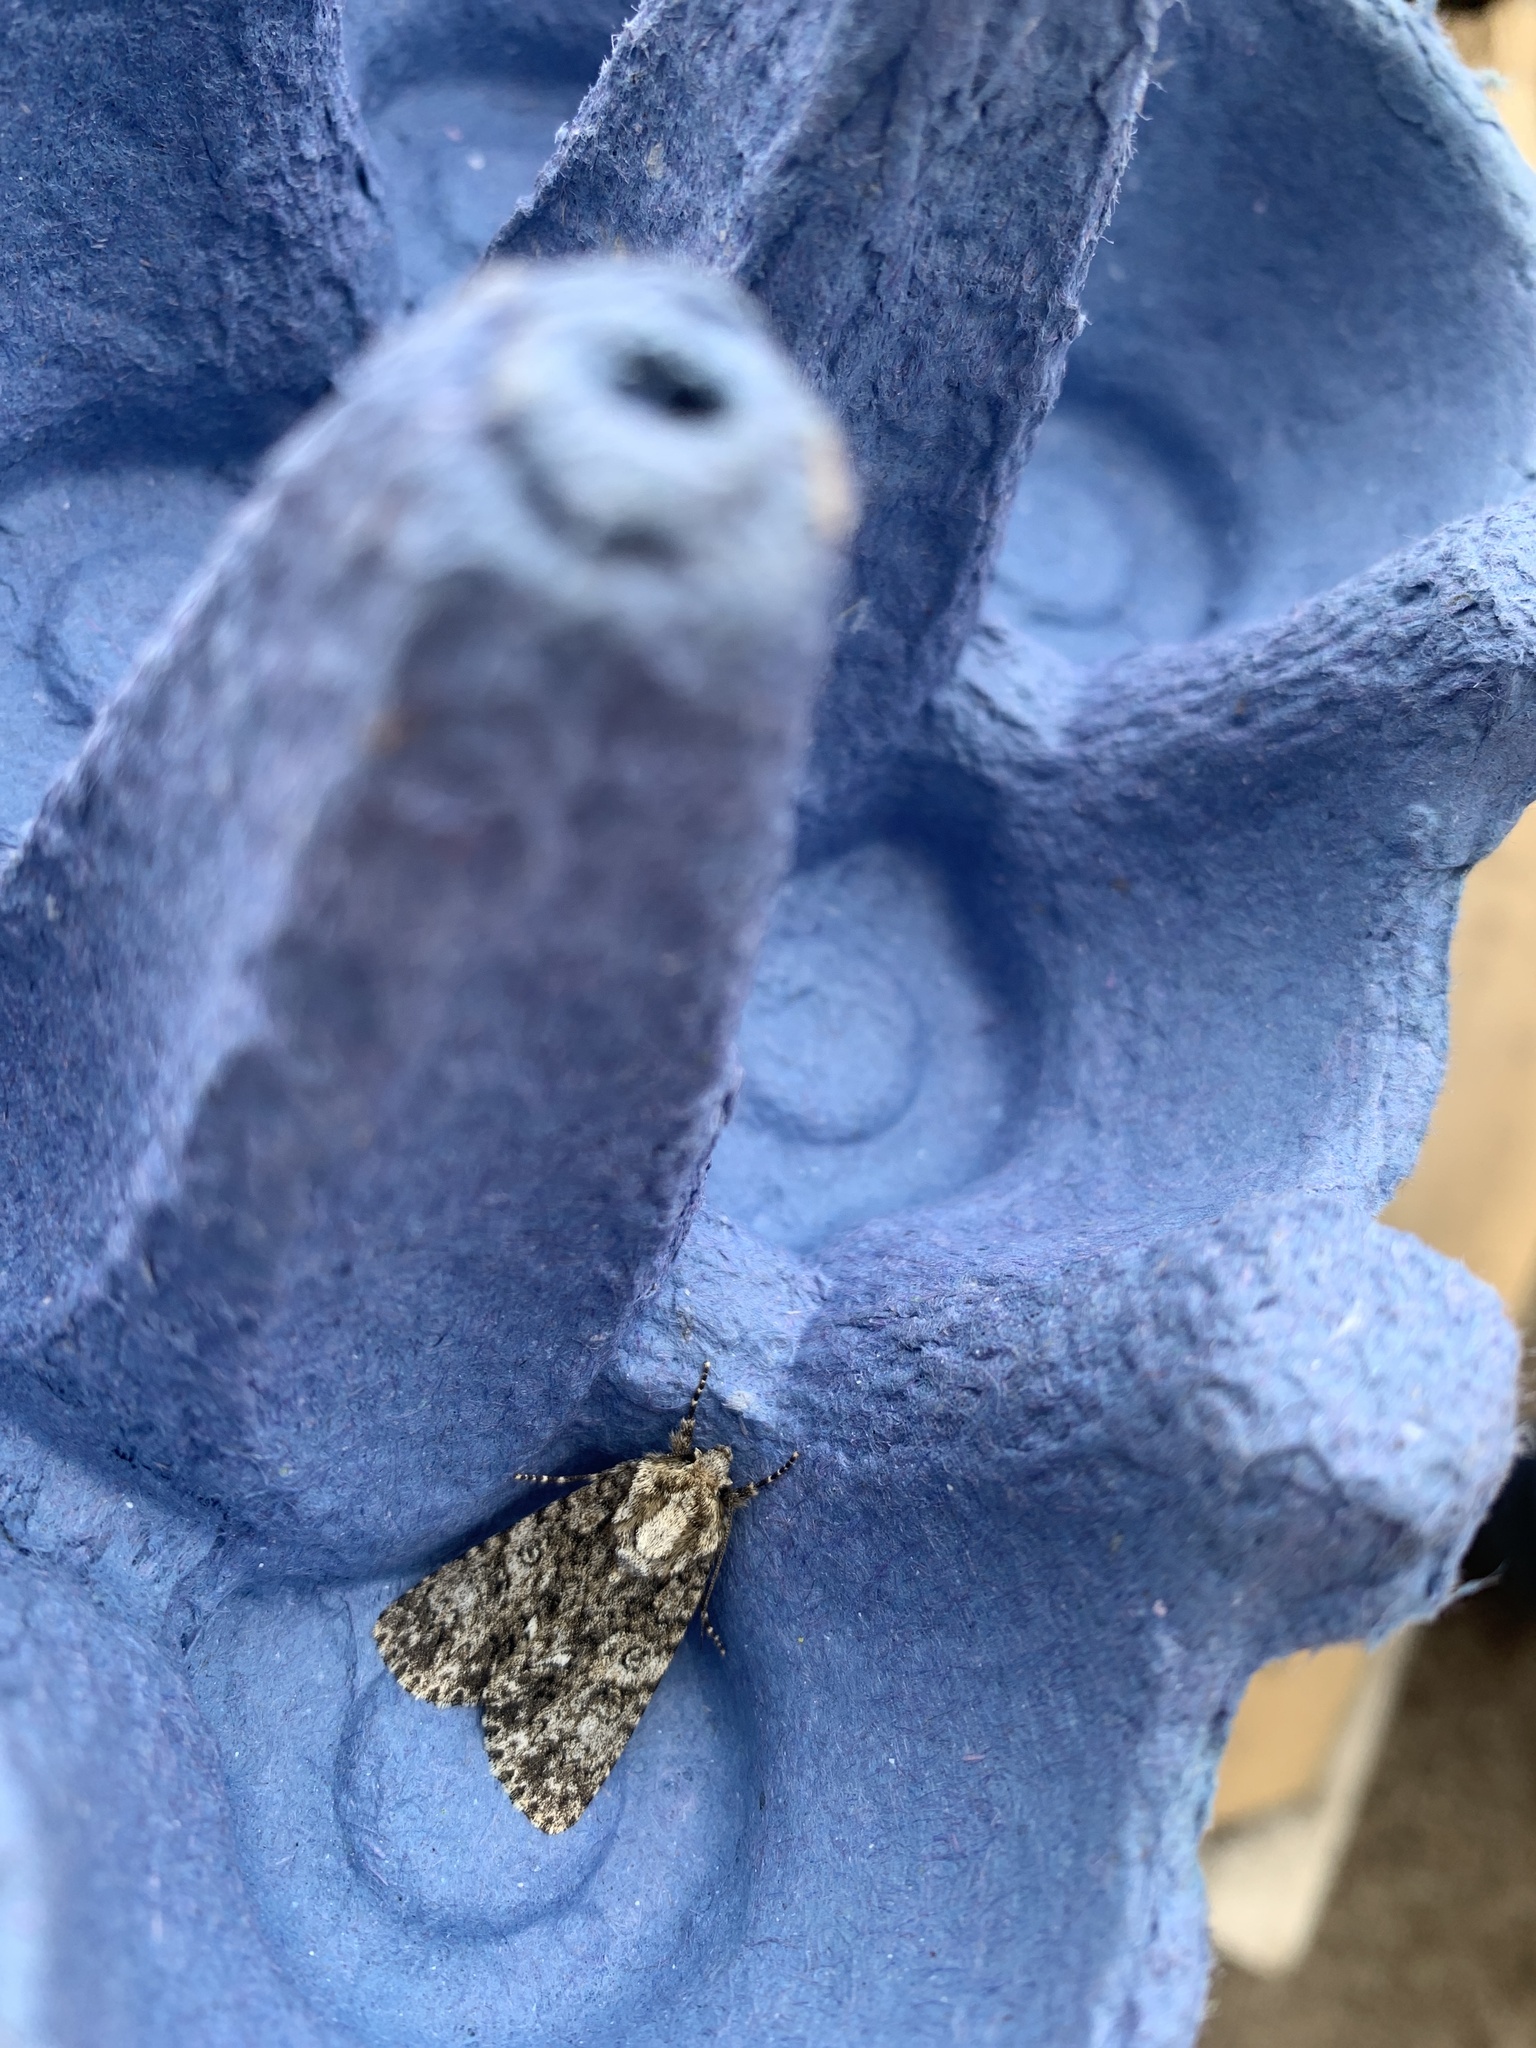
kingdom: Animalia
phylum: Arthropoda
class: Insecta
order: Lepidoptera
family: Noctuidae
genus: Acronicta
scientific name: Acronicta rumicis
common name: Knot grass
